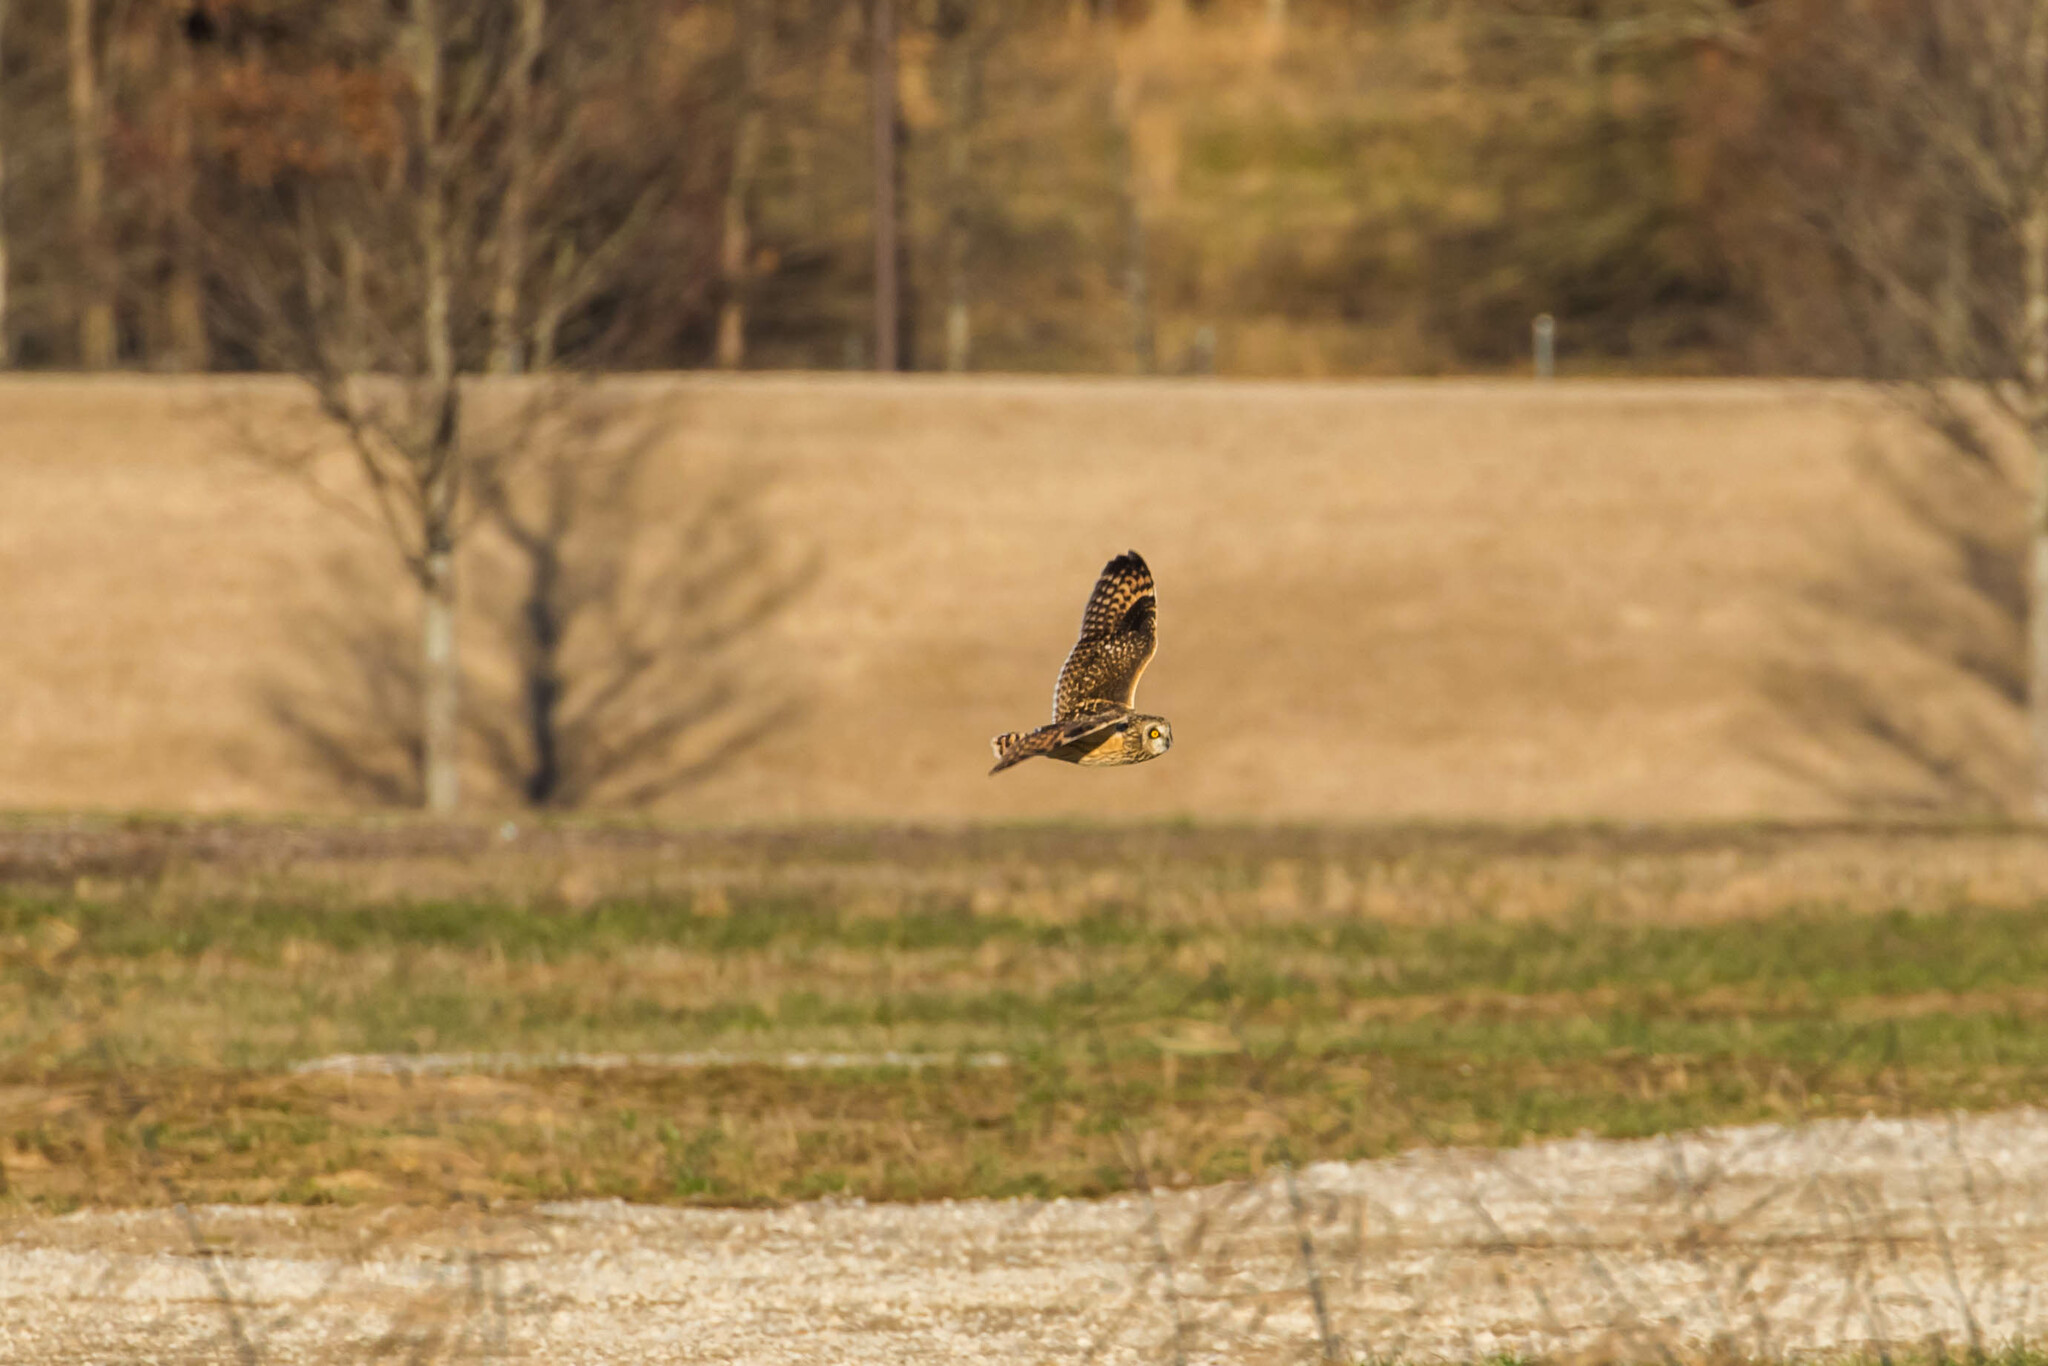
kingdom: Animalia
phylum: Chordata
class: Aves
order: Strigiformes
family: Strigidae
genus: Asio
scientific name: Asio flammeus
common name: Short-eared owl
